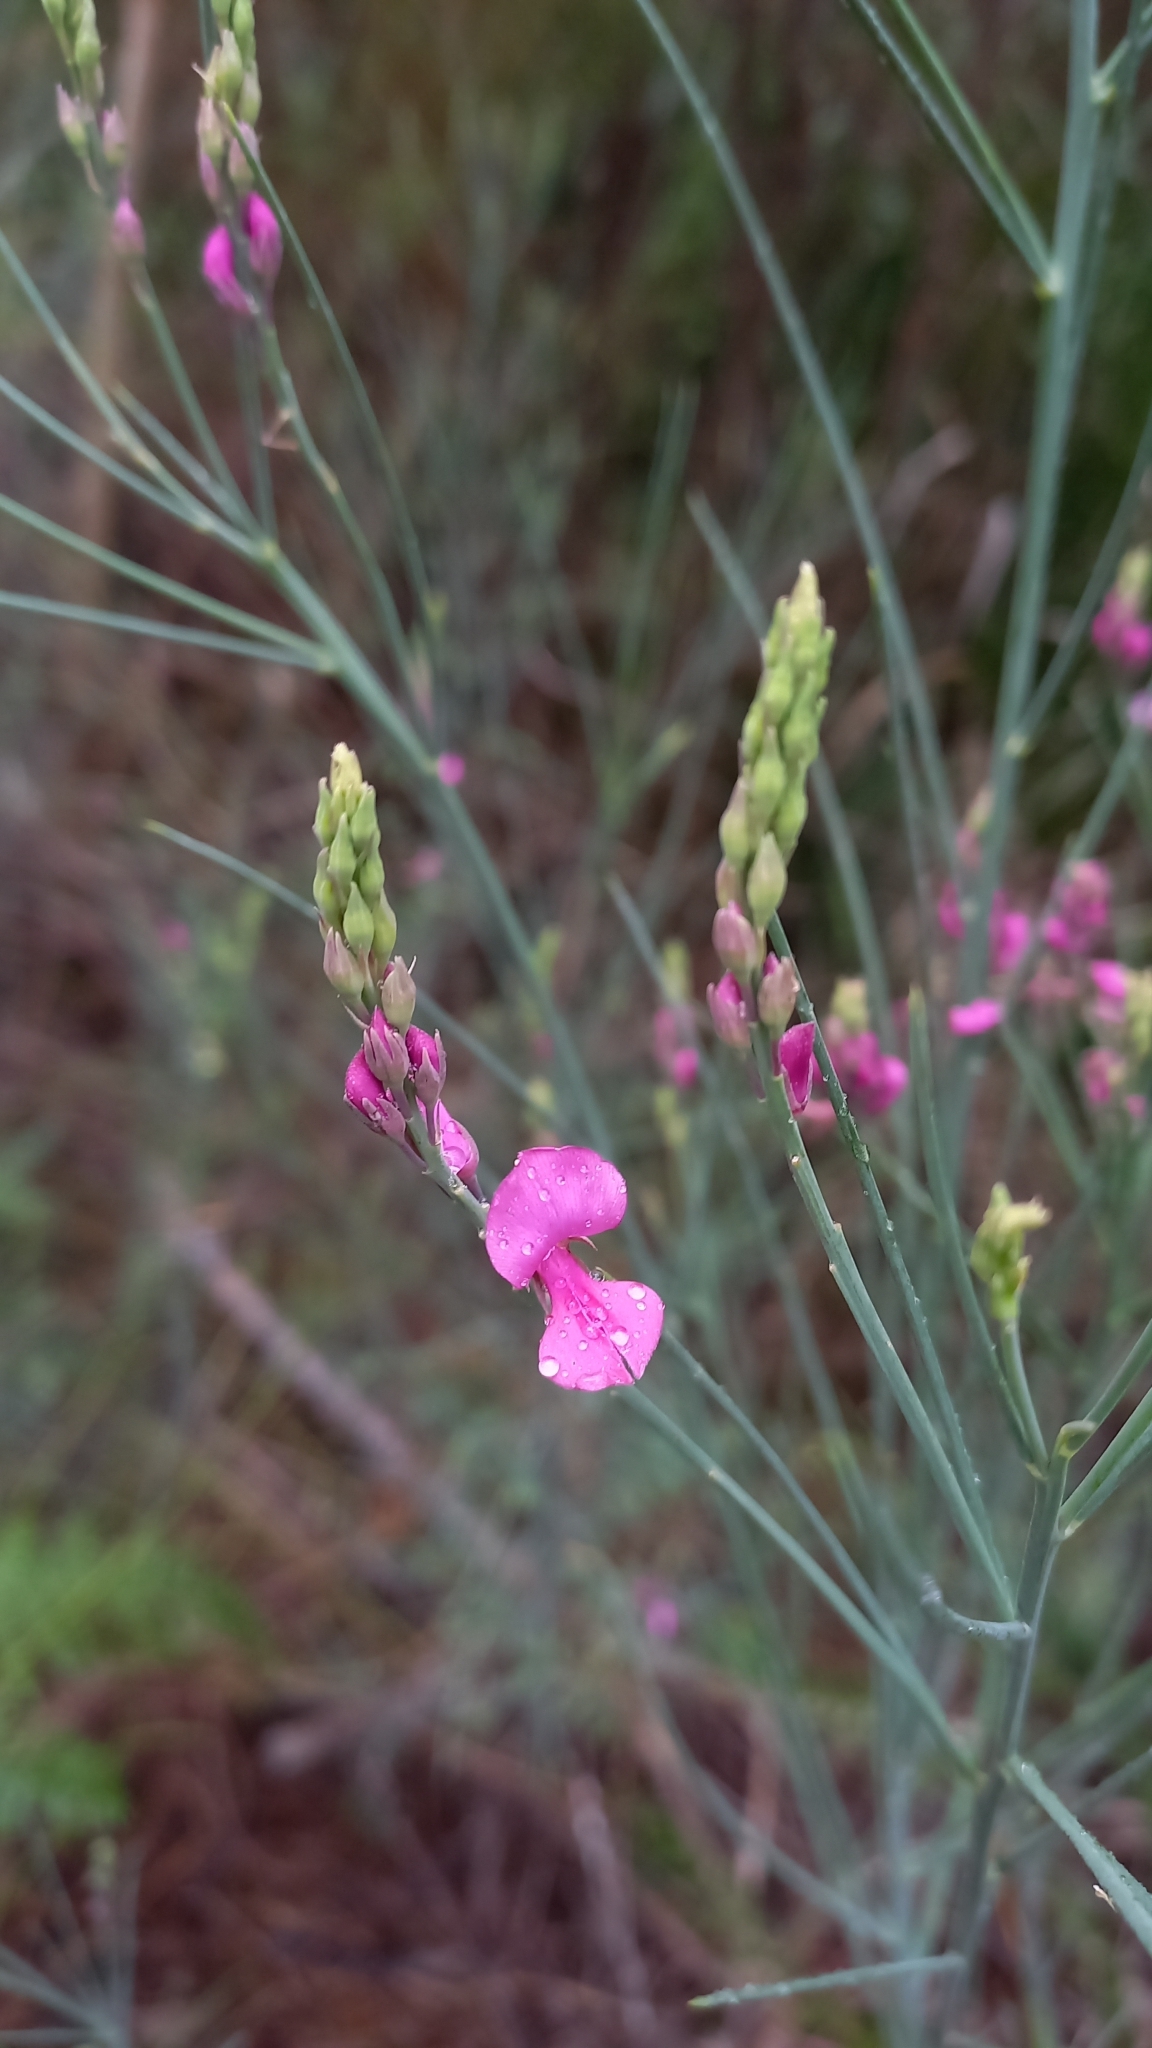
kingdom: Plantae
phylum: Tracheophyta
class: Magnoliopsida
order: Fabales
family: Fabaceae
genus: Indigofera
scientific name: Indigofera filifolia
